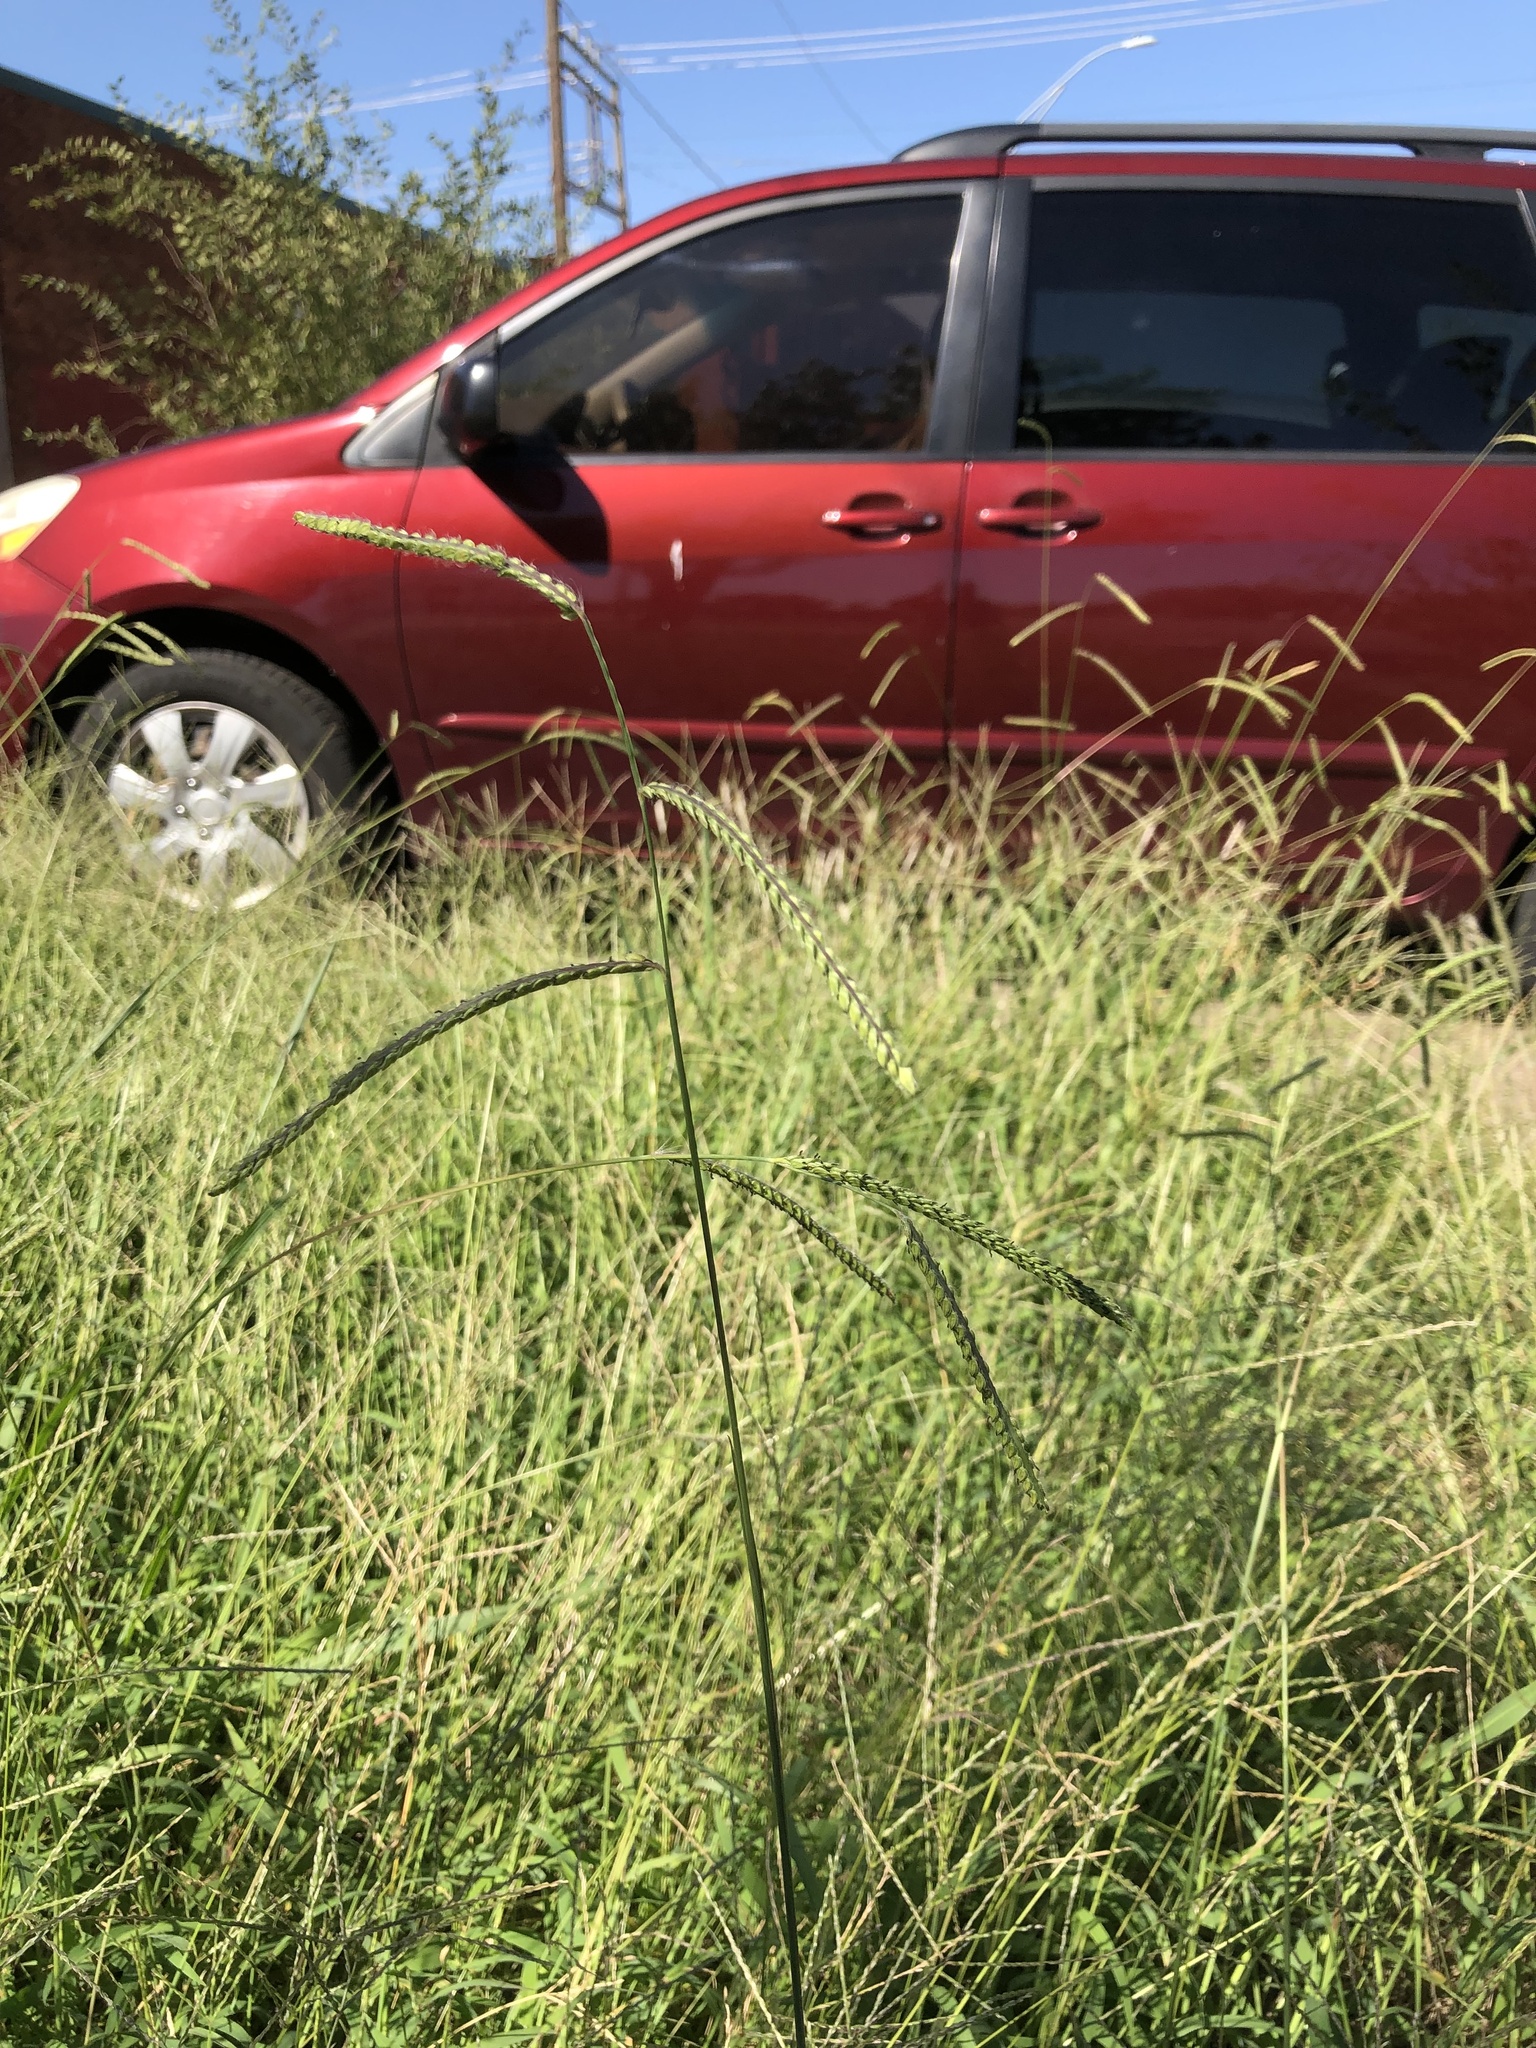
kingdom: Plantae
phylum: Tracheophyta
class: Liliopsida
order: Poales
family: Poaceae
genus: Paspalum
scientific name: Paspalum dilatatum
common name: Dallisgrass
